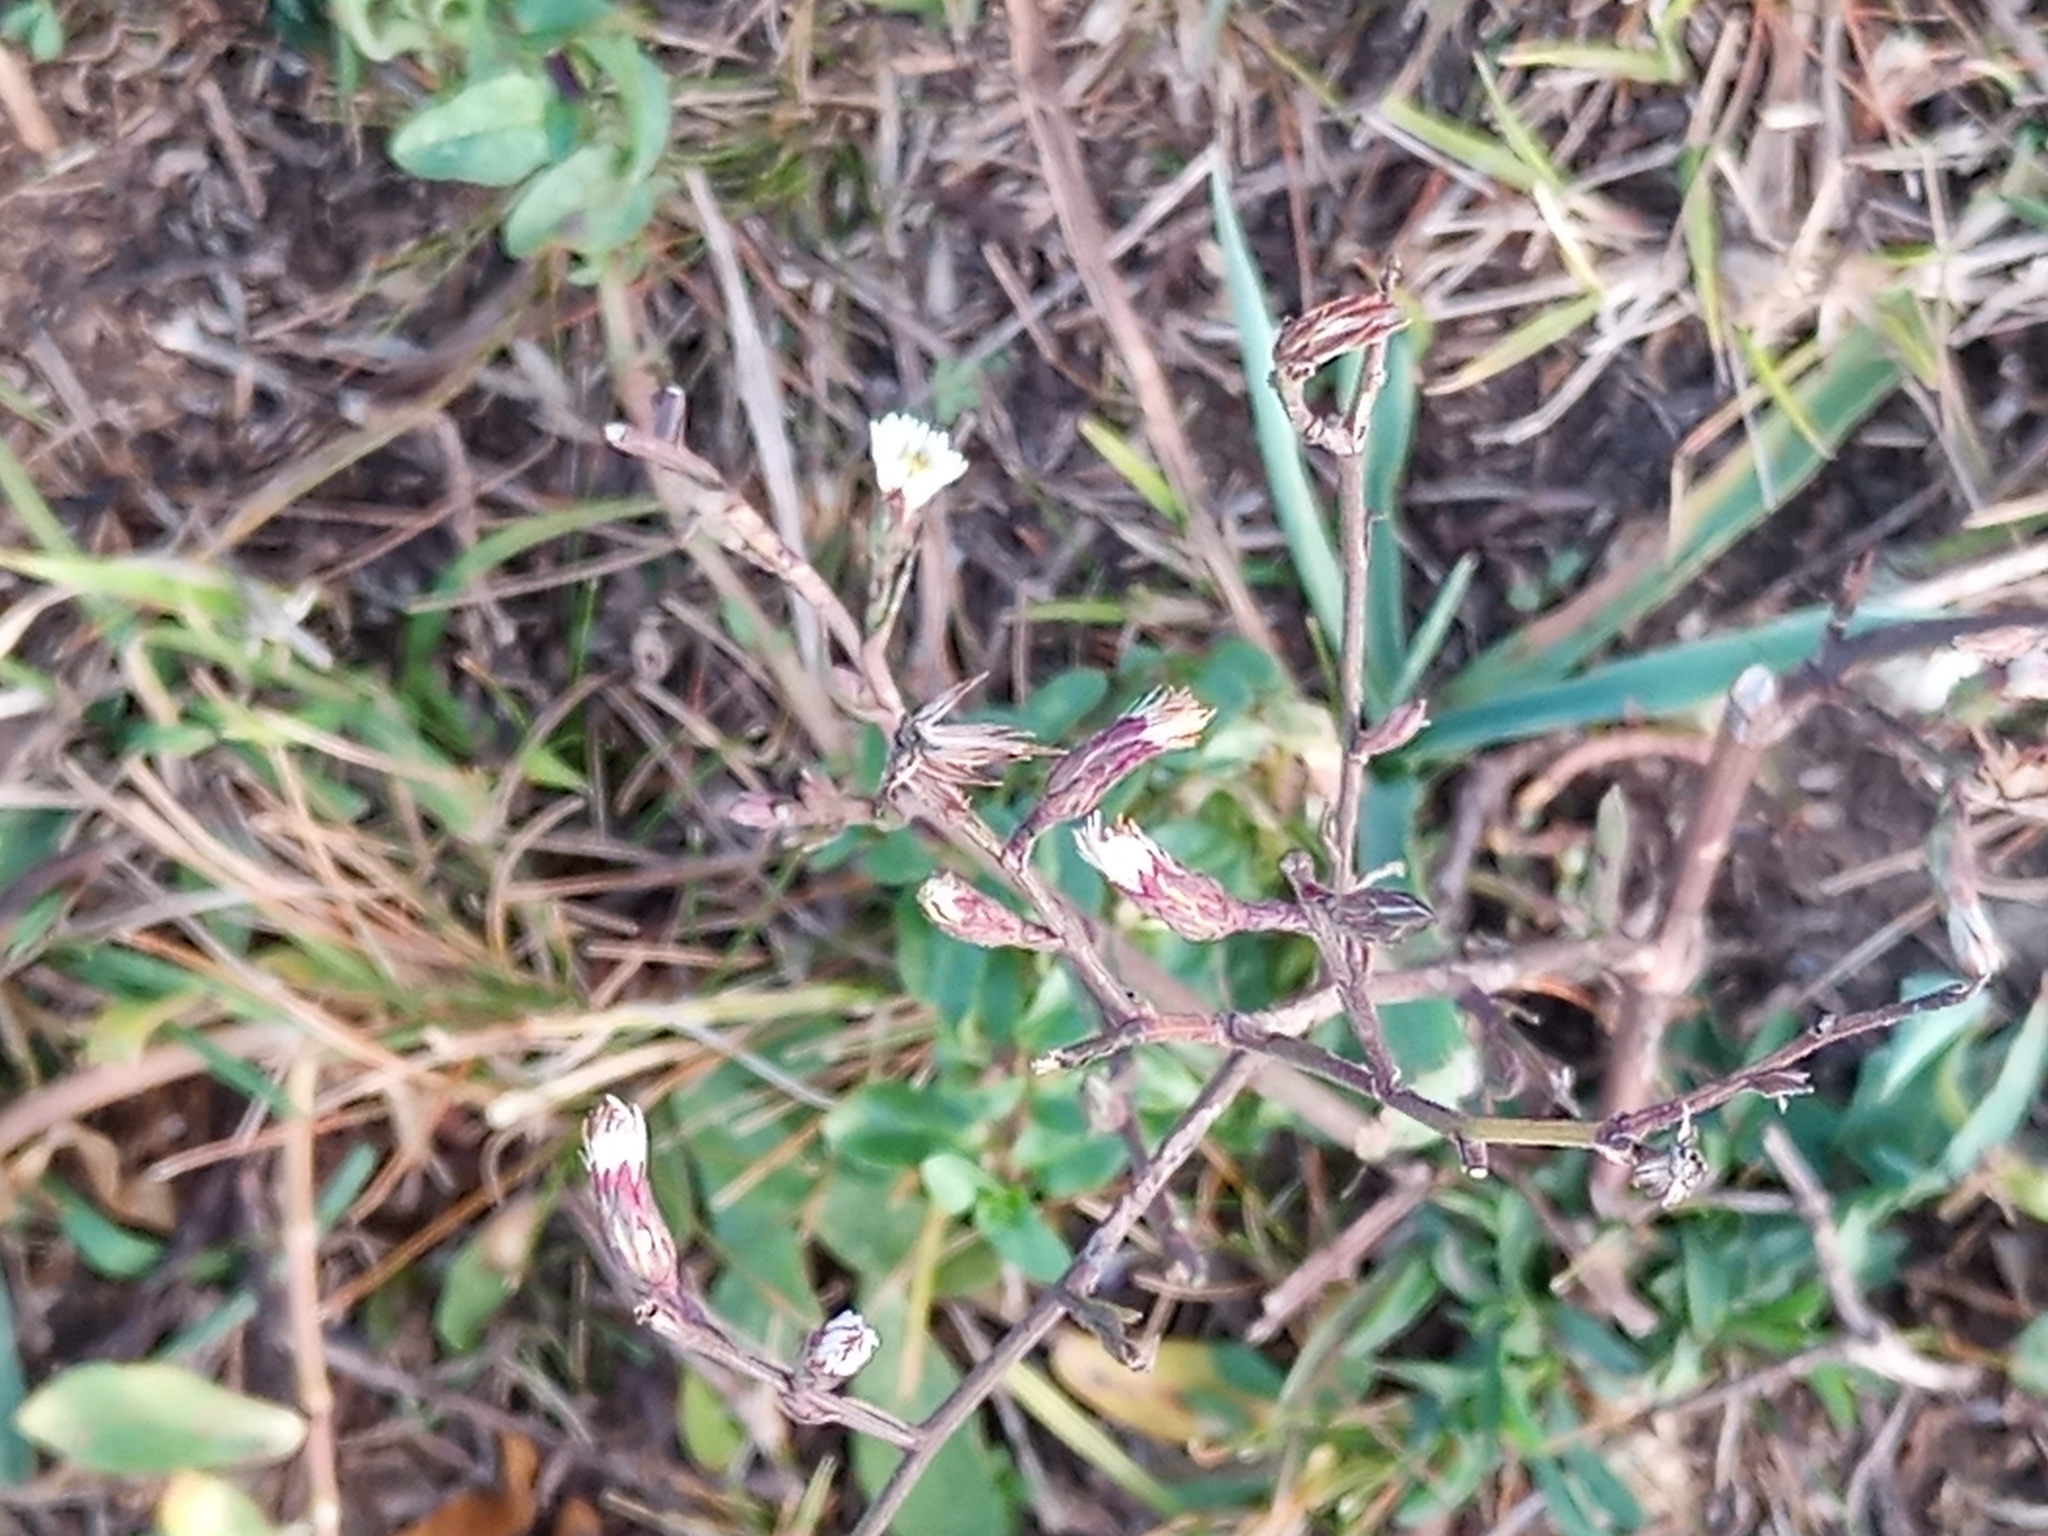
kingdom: Plantae
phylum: Tracheophyta
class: Magnoliopsida
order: Asterales
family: Asteraceae
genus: Symphyotrichum
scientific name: Symphyotrichum squamatum
